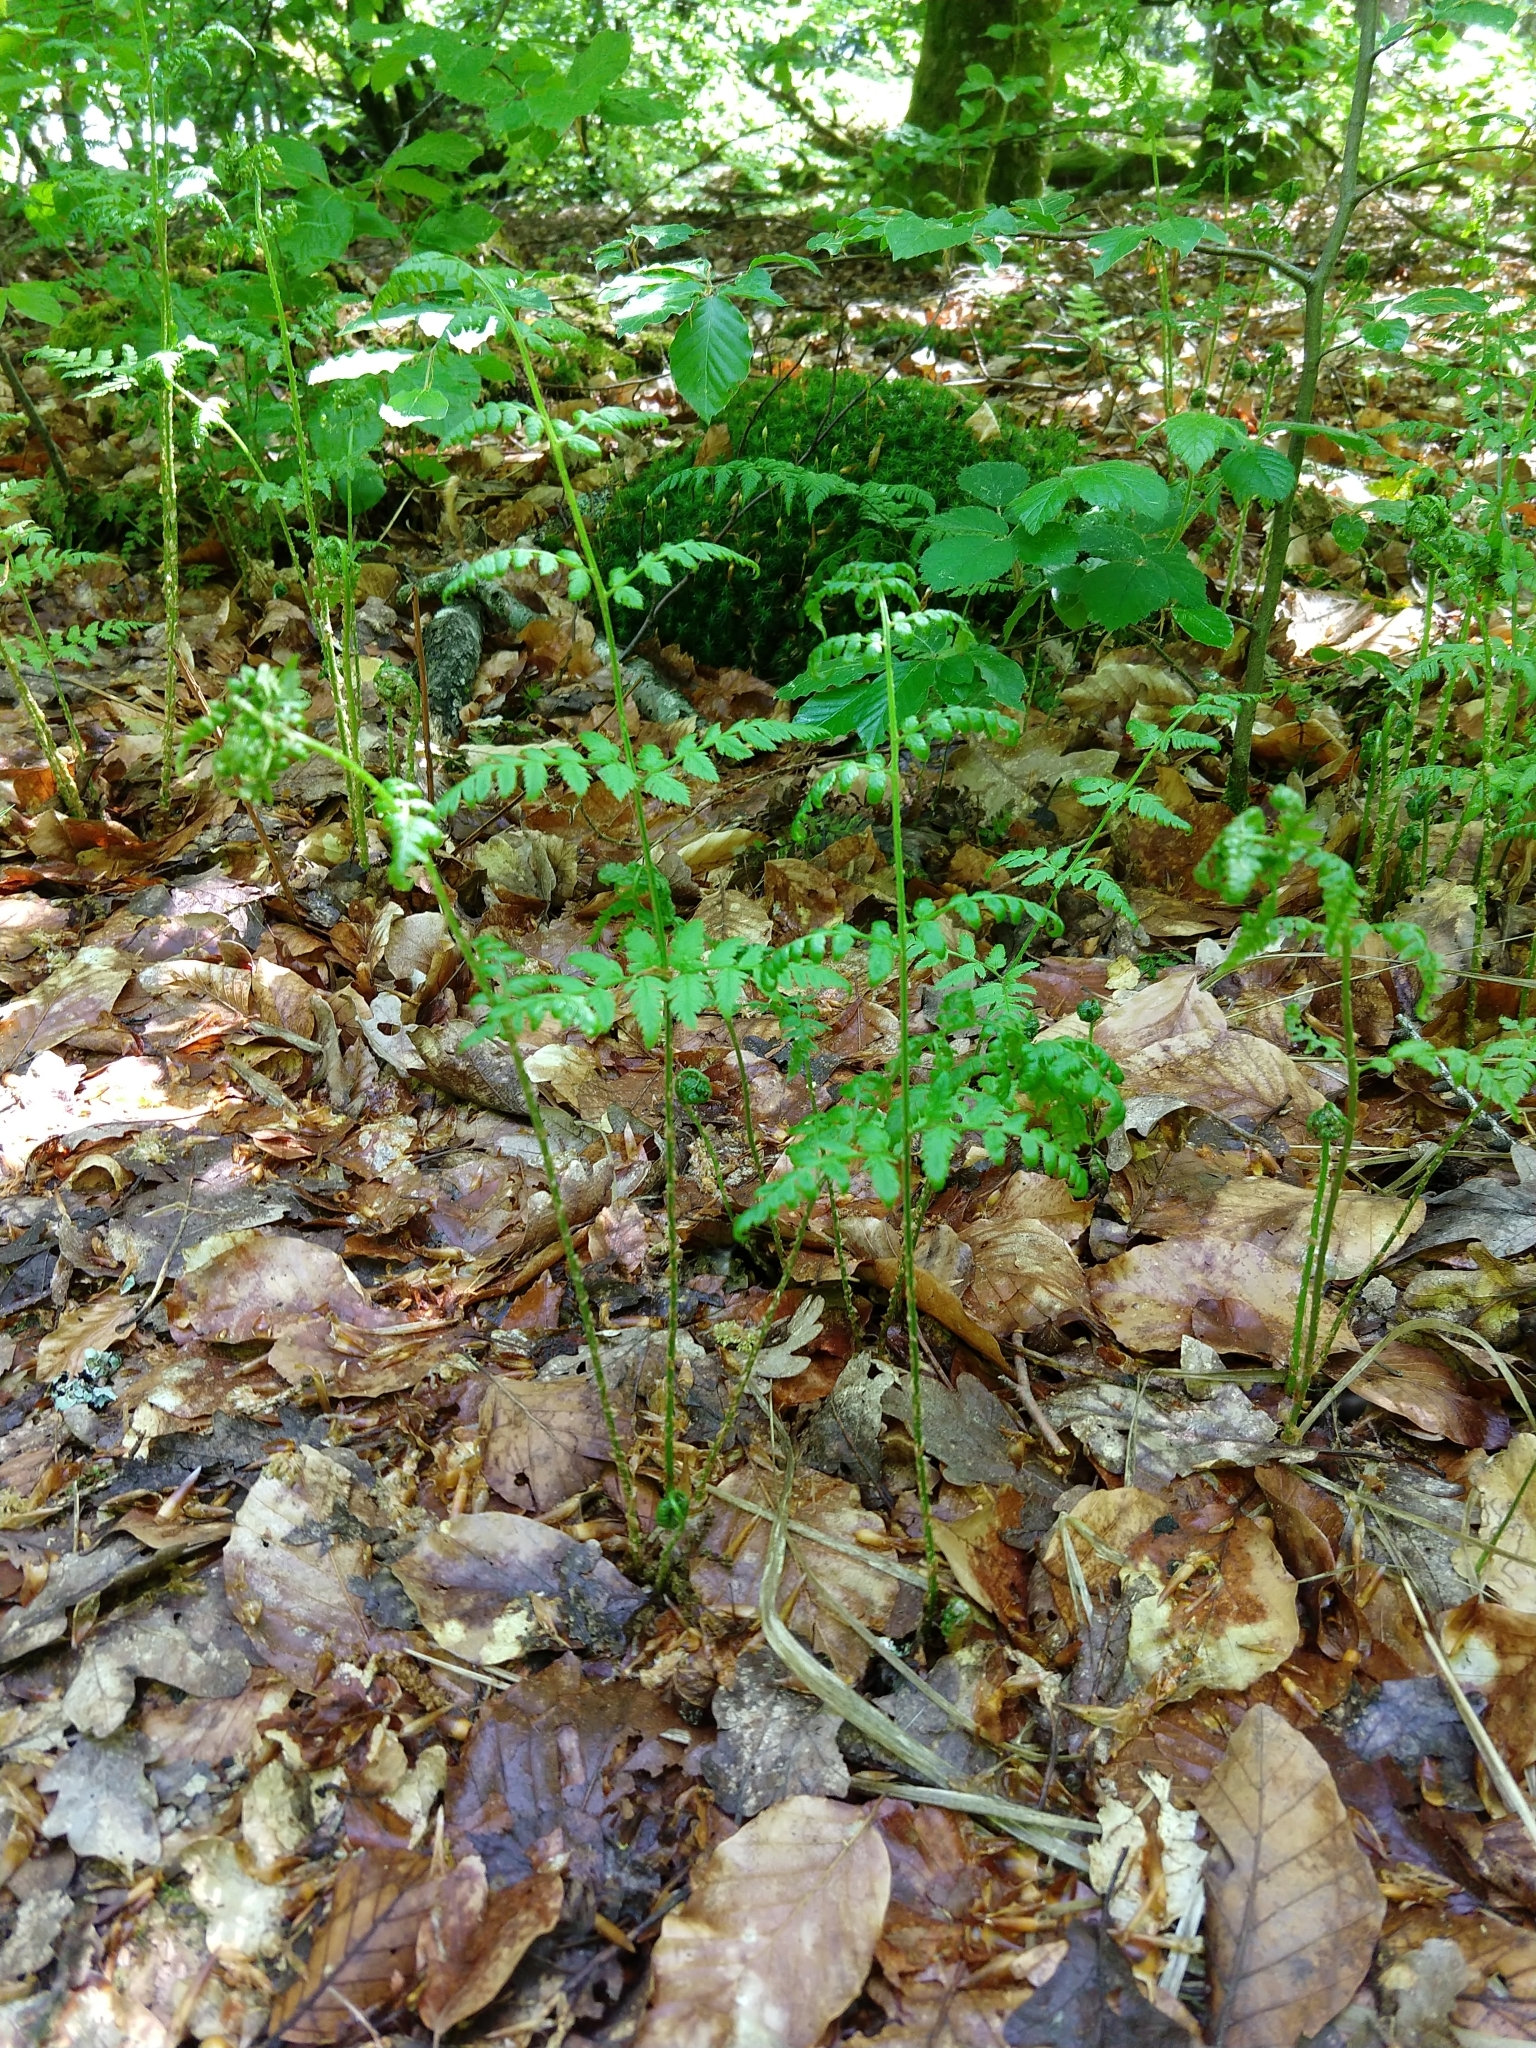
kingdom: Plantae
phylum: Tracheophyta
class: Polypodiopsida
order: Polypodiales
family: Dryopteridaceae
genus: Dryopteris
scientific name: Dryopteris carthusiana
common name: Narrow buckler-fern
